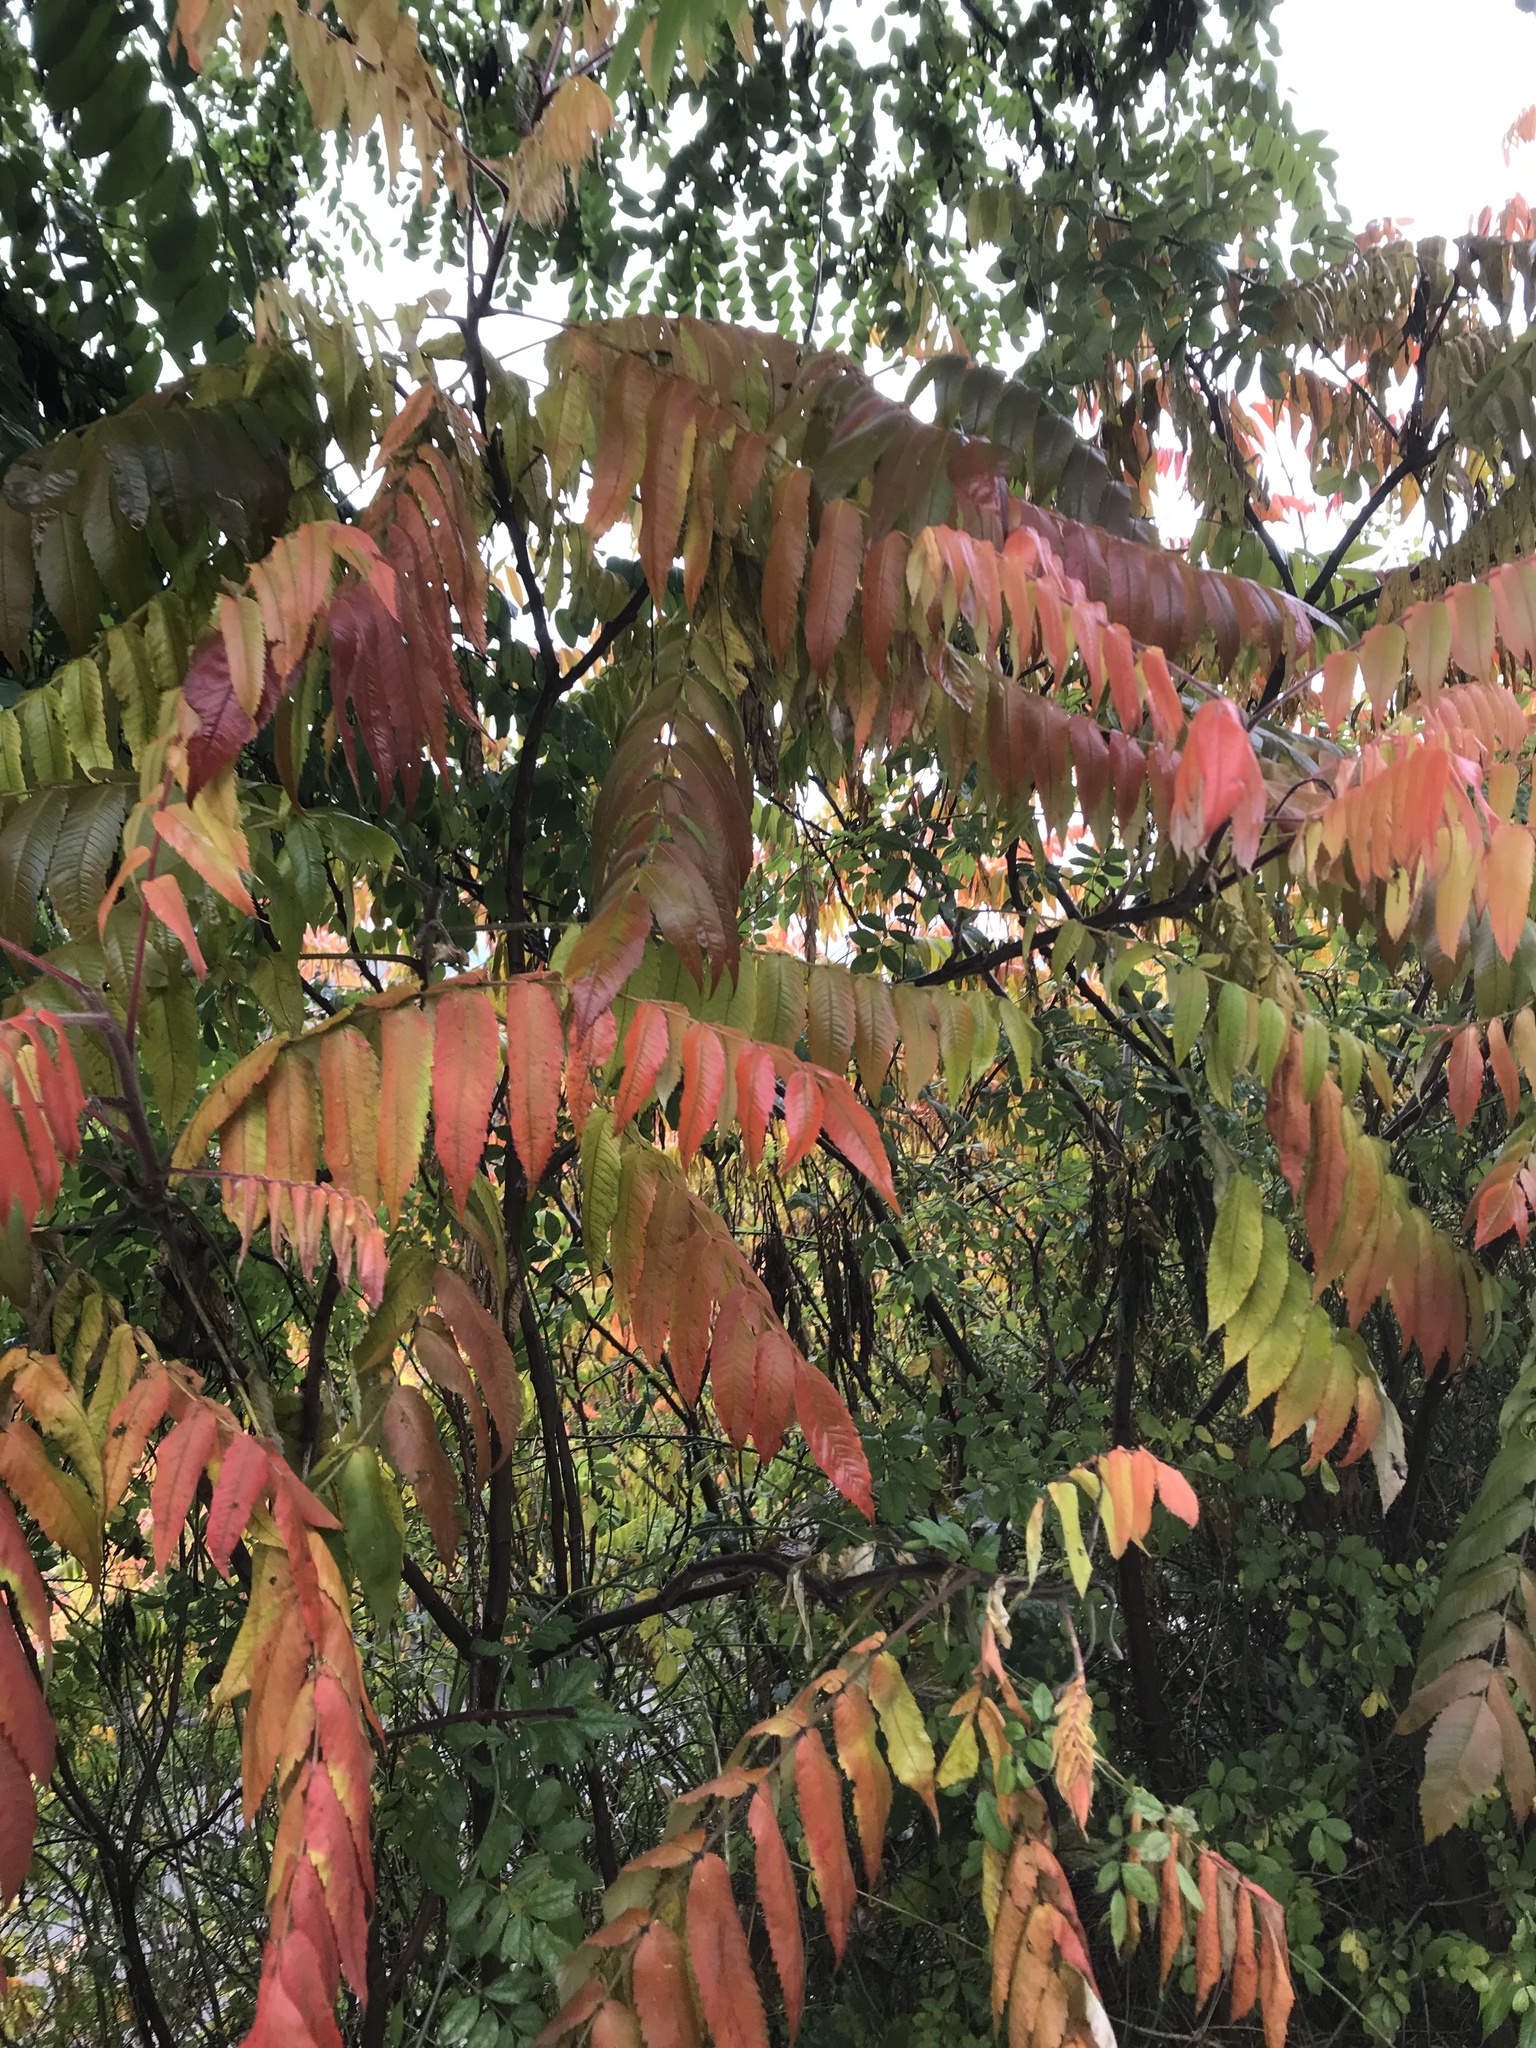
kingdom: Plantae
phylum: Tracheophyta
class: Magnoliopsida
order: Sapindales
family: Anacardiaceae
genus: Rhus
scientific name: Rhus typhina
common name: Staghorn sumac
